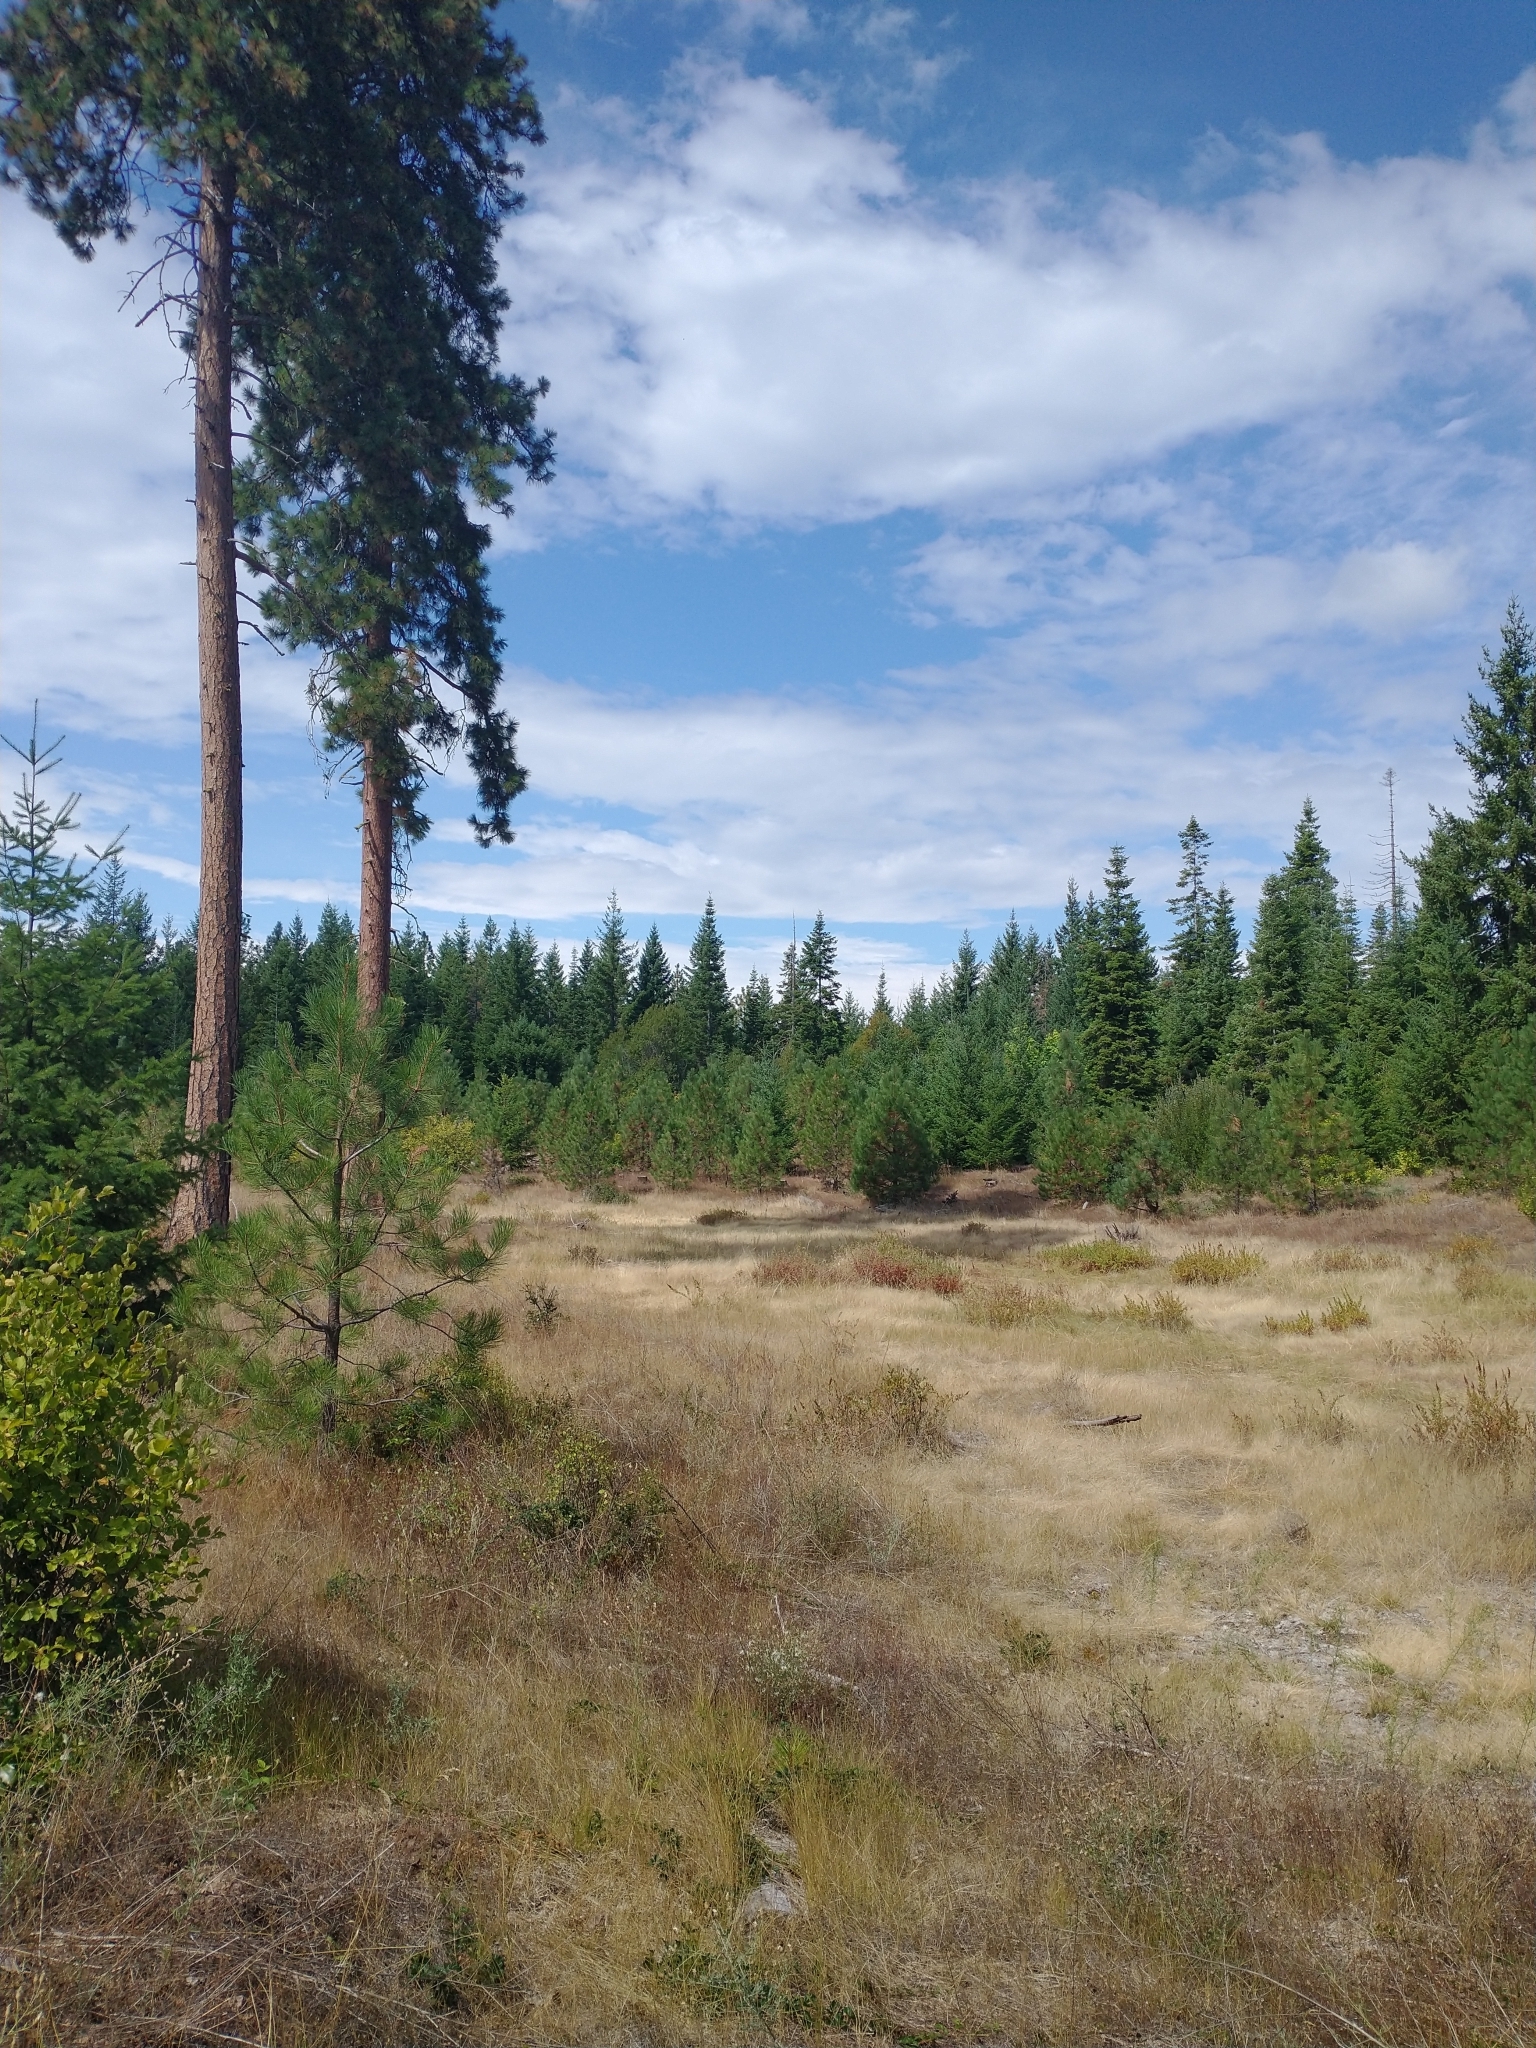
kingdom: Plantae
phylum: Tracheophyta
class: Pinopsida
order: Pinales
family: Pinaceae
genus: Pinus
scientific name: Pinus ponderosa
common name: Western yellow-pine
